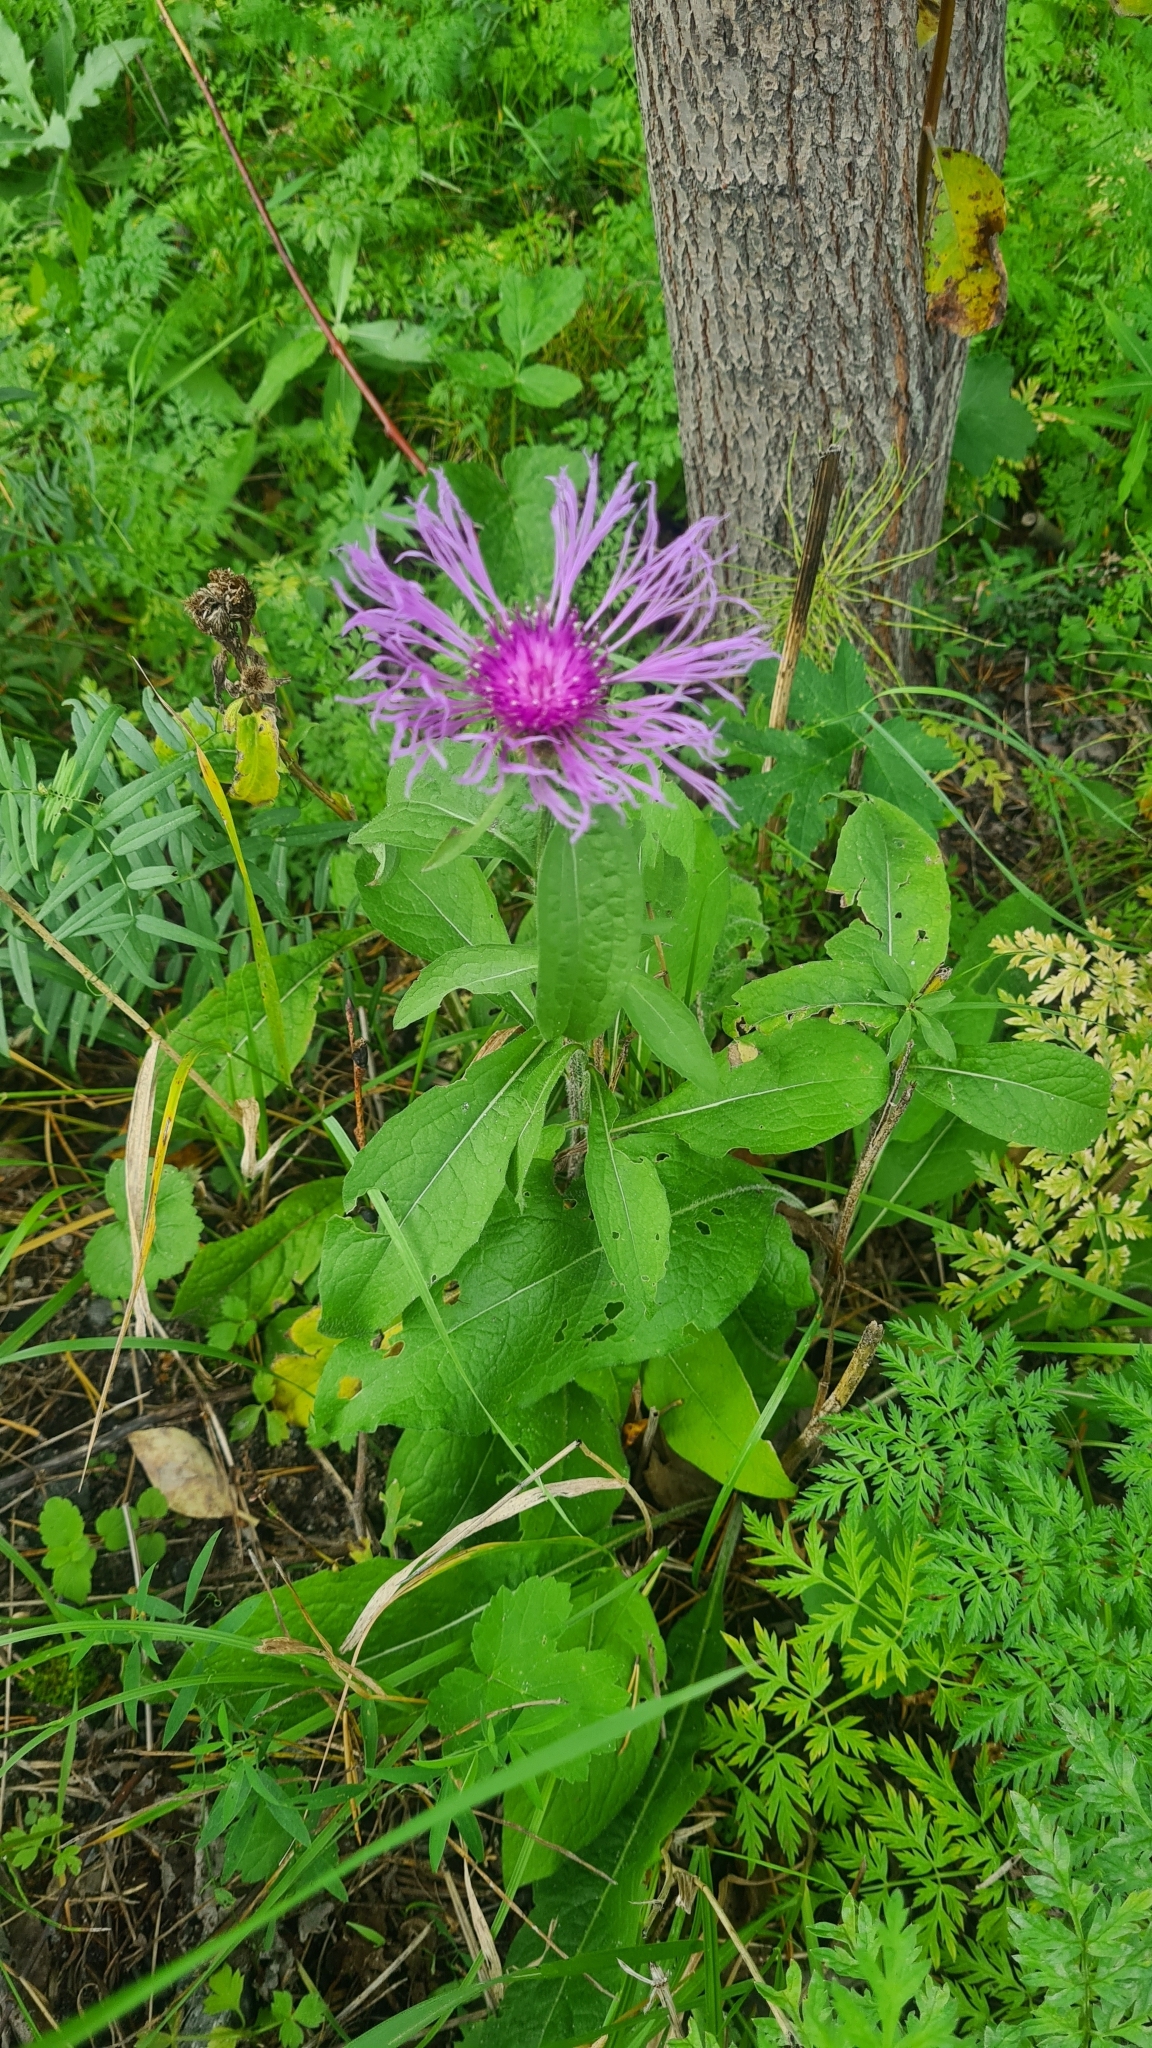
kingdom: Plantae
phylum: Tracheophyta
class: Magnoliopsida
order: Asterales
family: Asteraceae
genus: Centaurea
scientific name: Centaurea phrygia
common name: Wig knapweed
